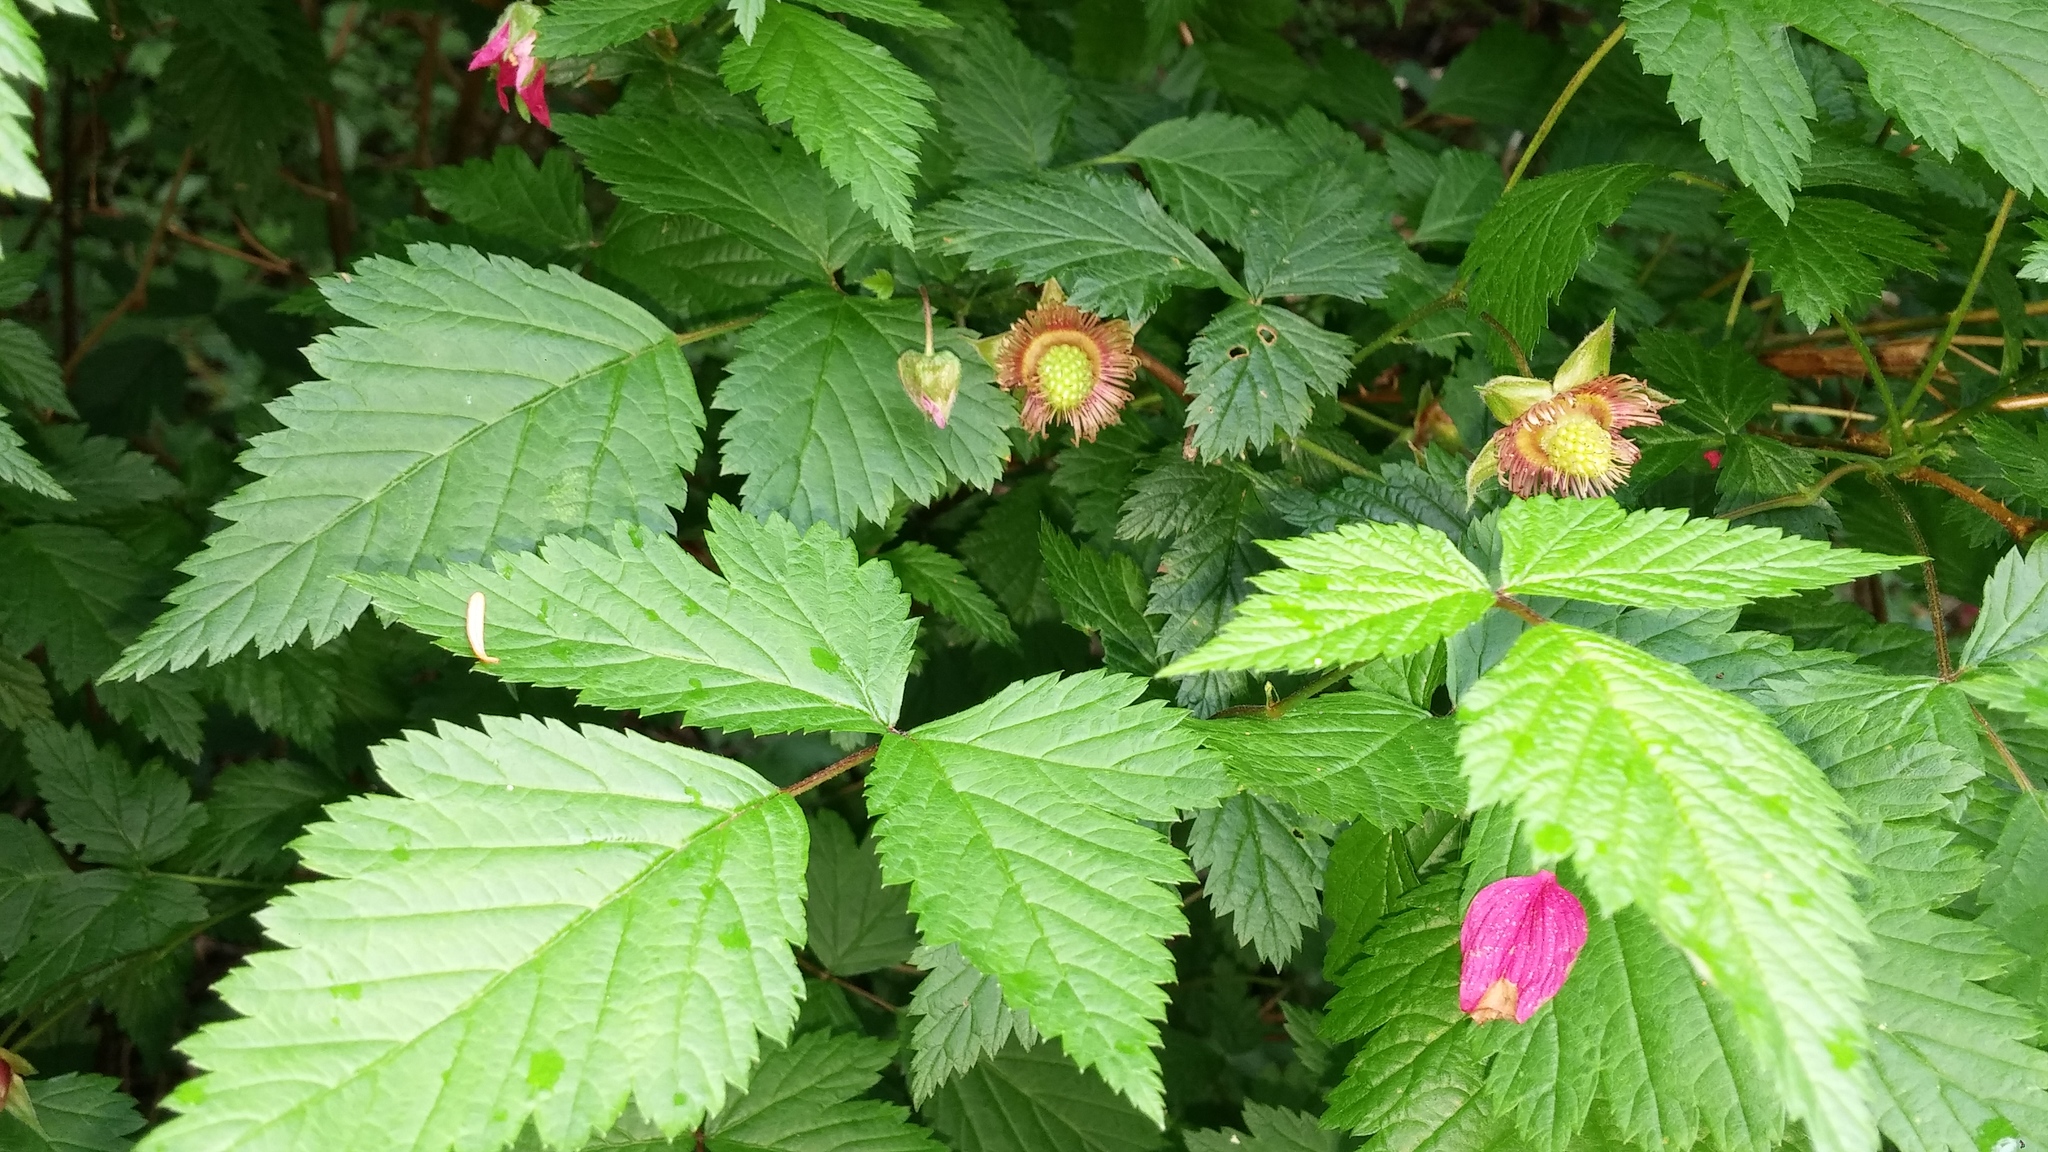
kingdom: Plantae
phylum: Tracheophyta
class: Magnoliopsida
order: Rosales
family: Rosaceae
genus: Rubus
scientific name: Rubus spectabilis
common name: Salmonberry
